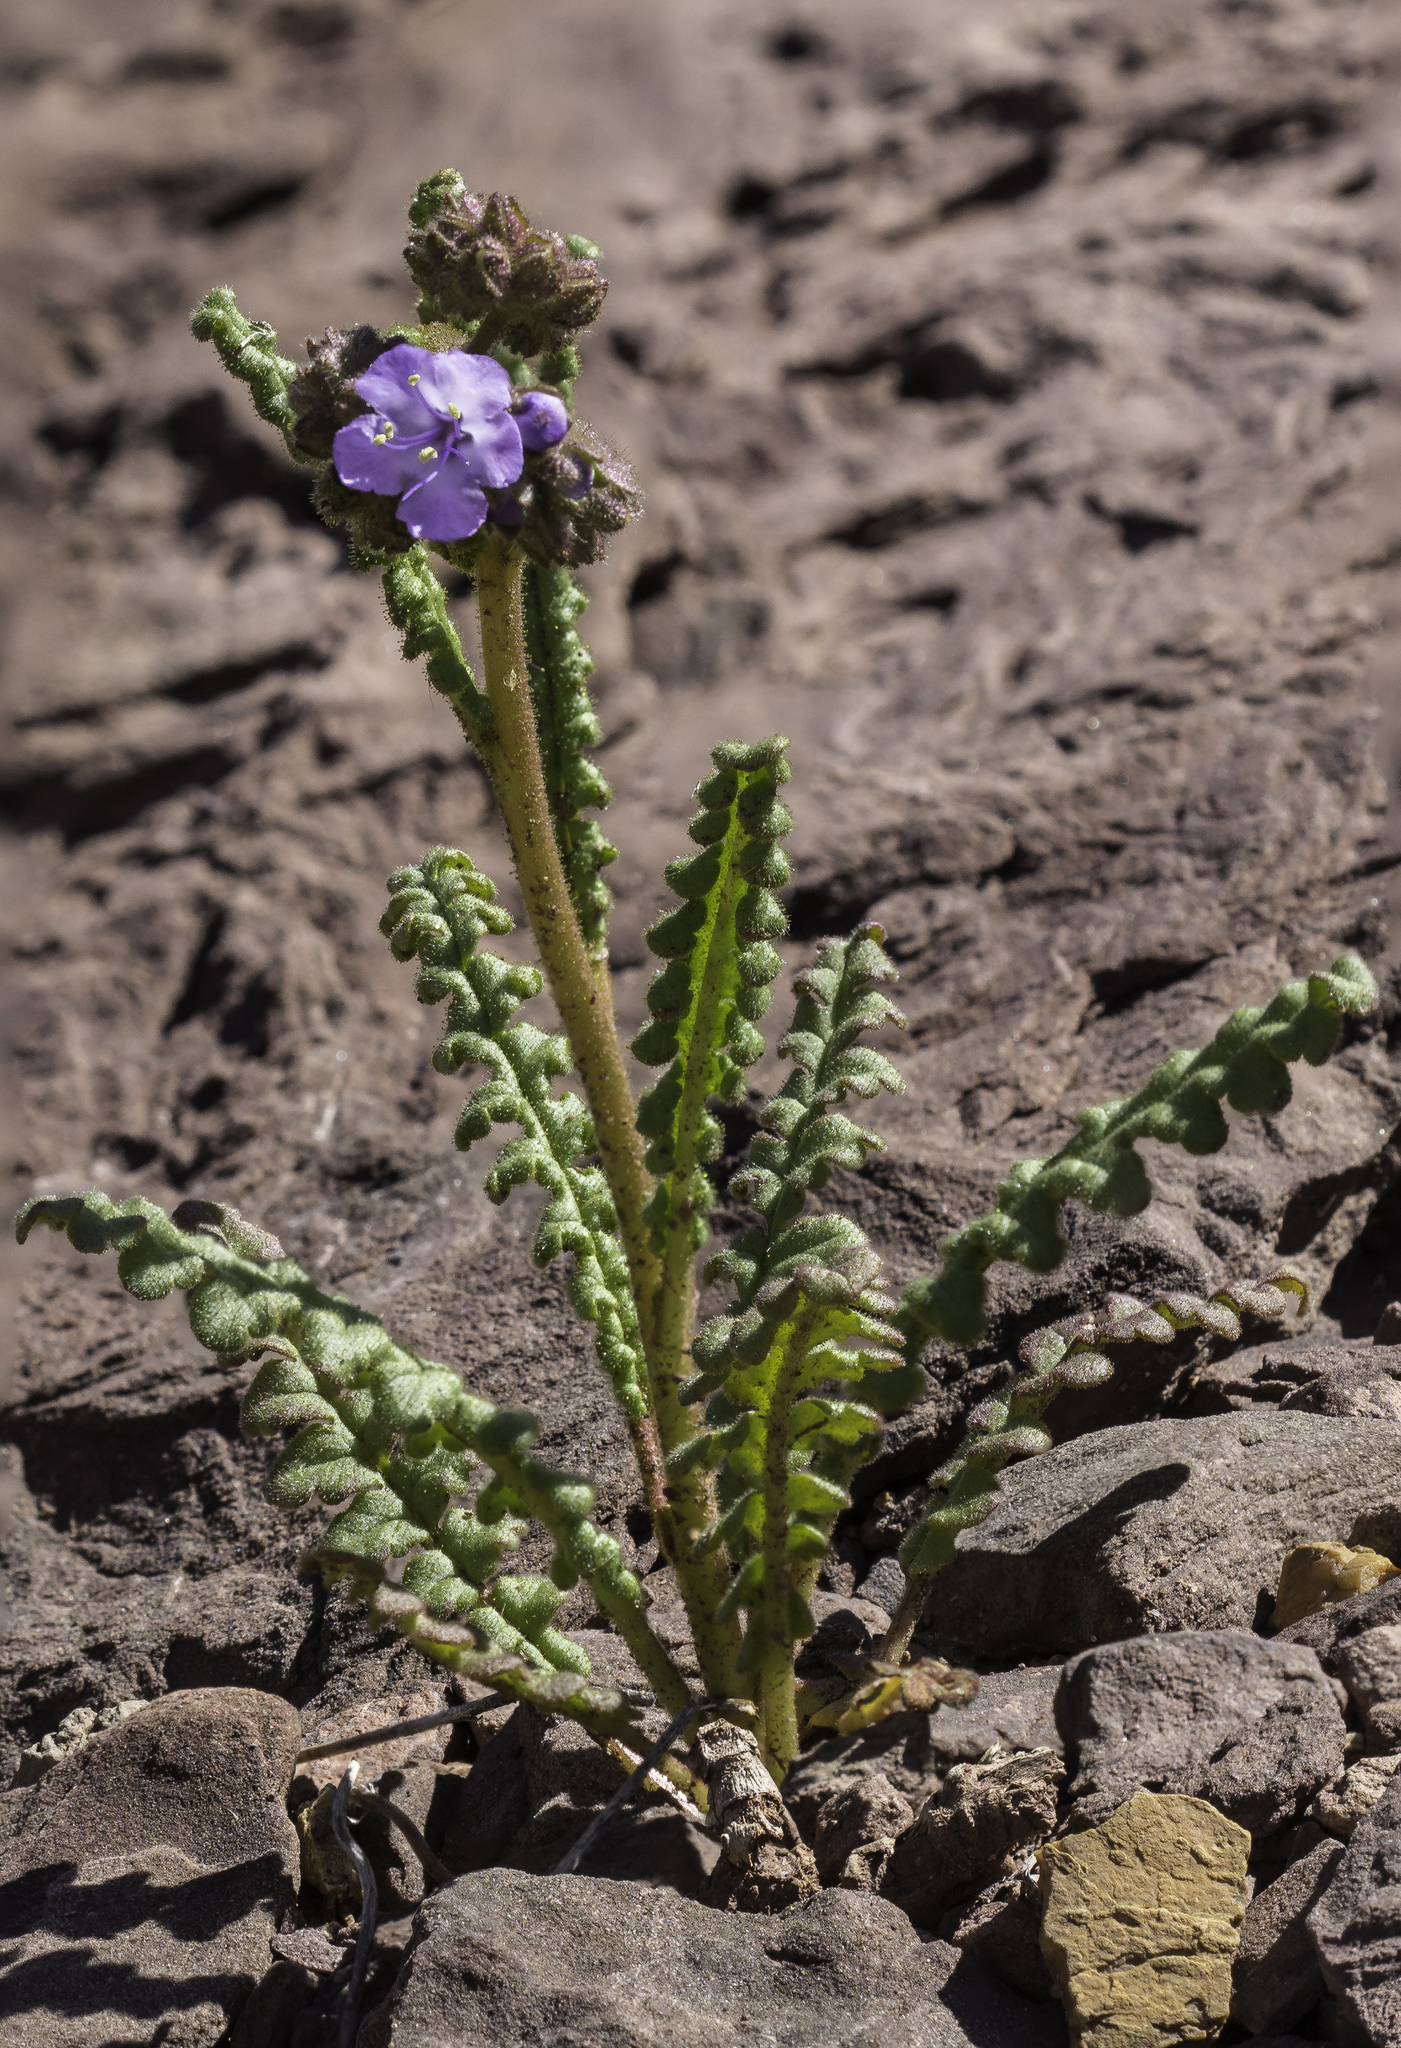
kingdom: Plantae
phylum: Tracheophyta
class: Magnoliopsida
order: Boraginales
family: Hydrophyllaceae
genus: Phacelia
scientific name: Phacelia crenulata
